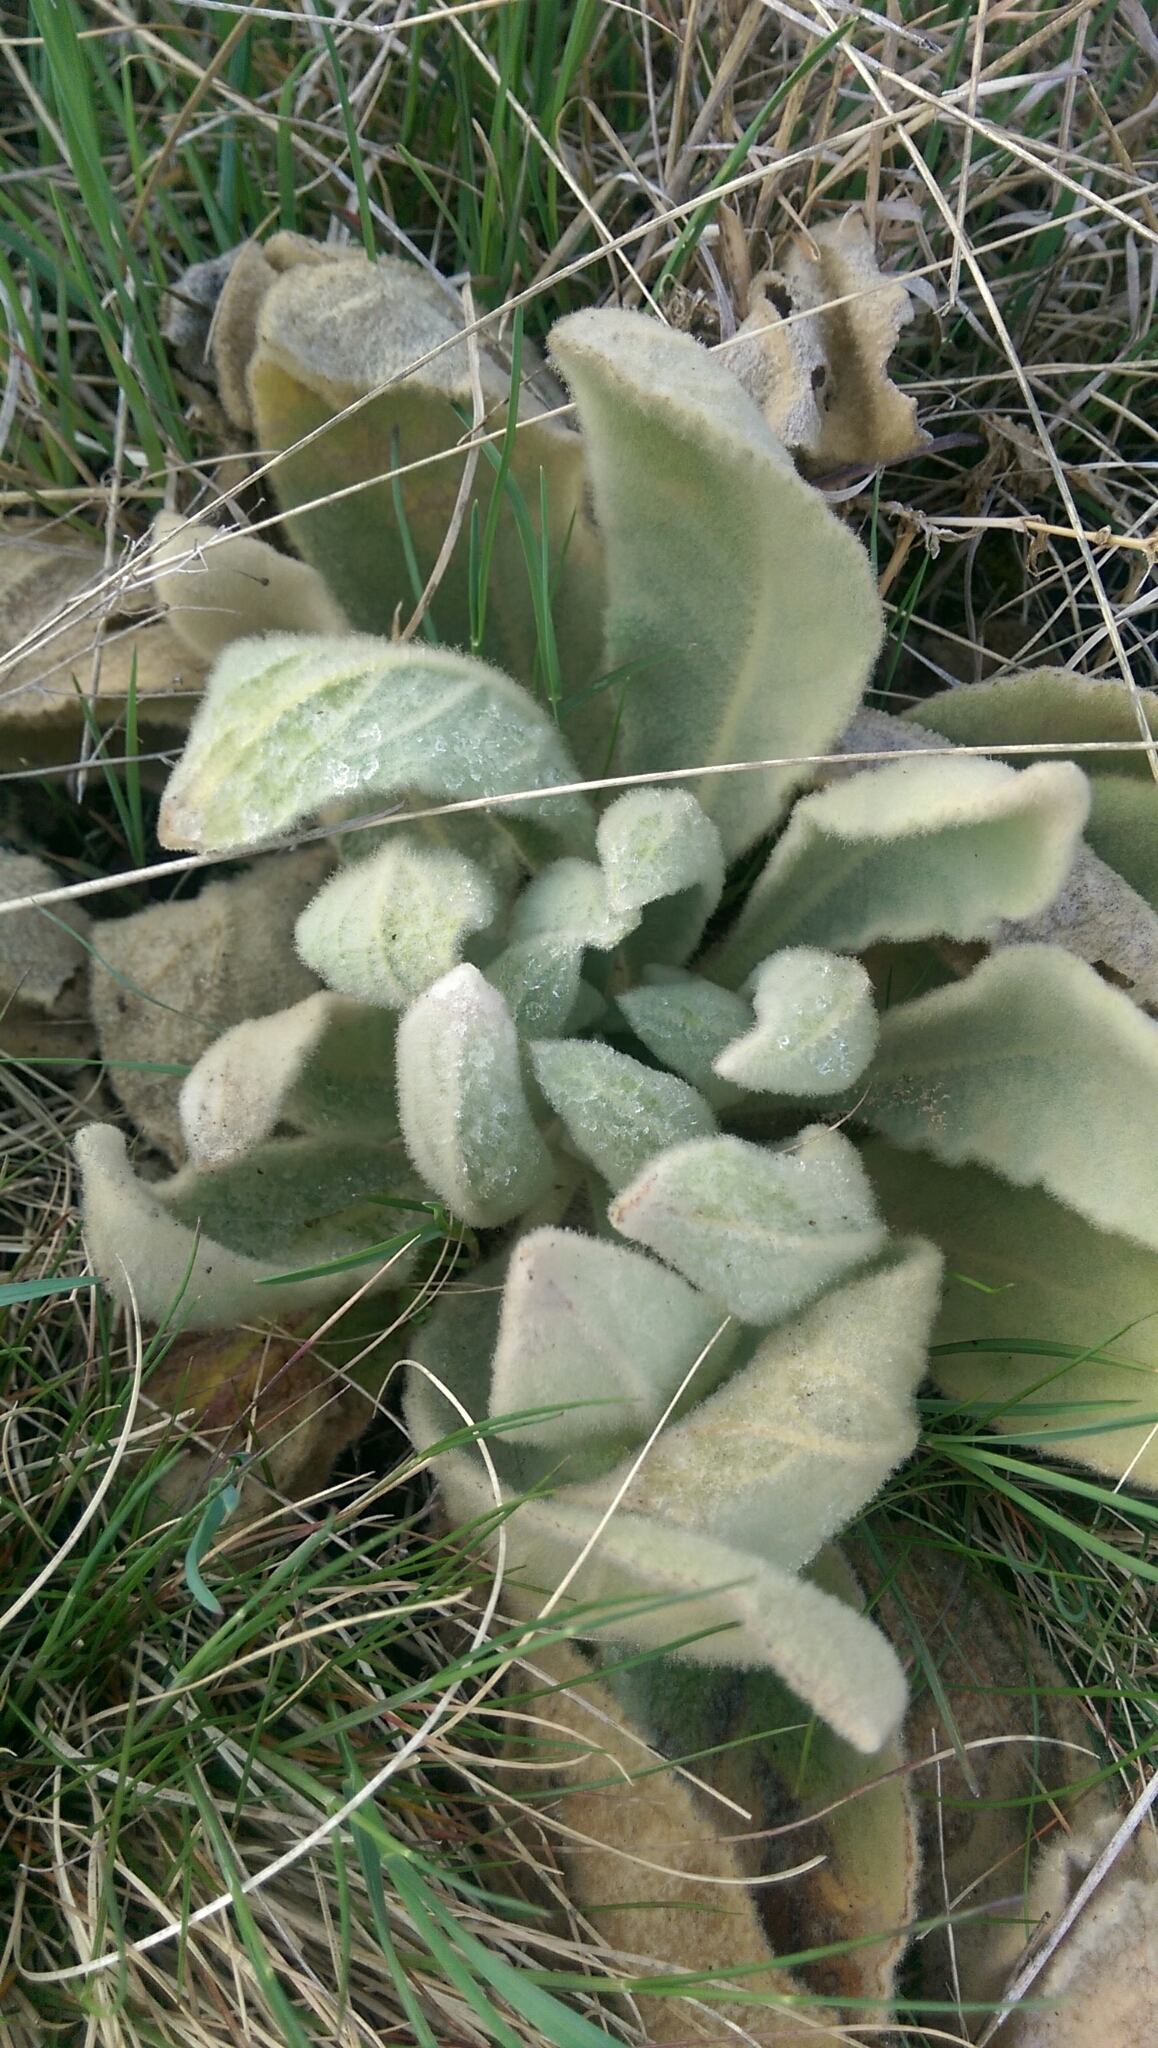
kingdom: Plantae
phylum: Tracheophyta
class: Magnoliopsida
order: Lamiales
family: Scrophulariaceae
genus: Verbascum
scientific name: Verbascum thapsus
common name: Common mullein
